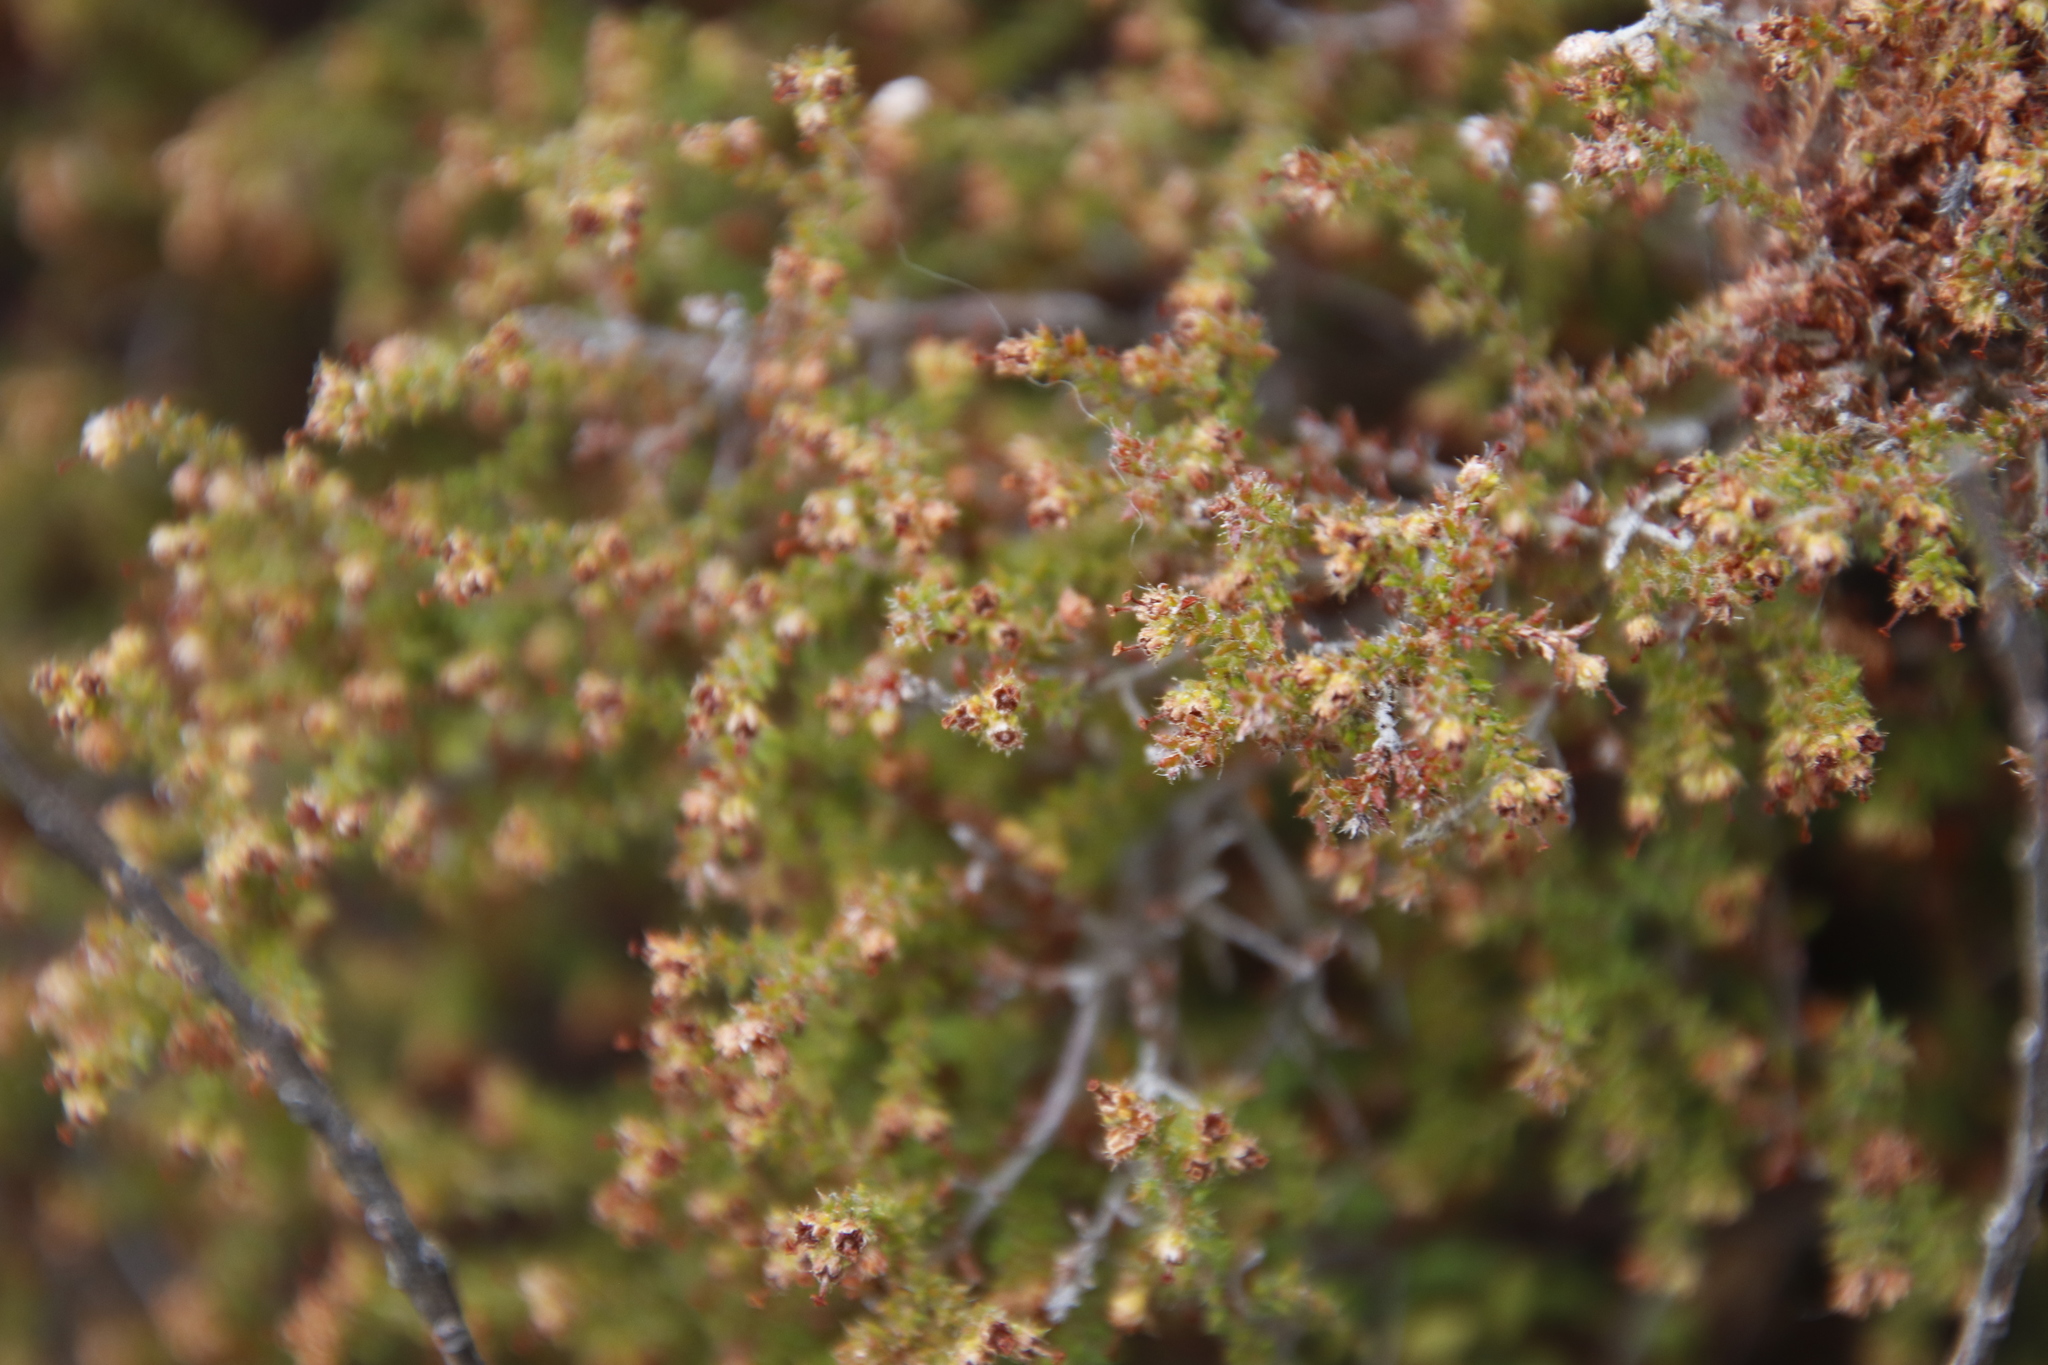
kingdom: Plantae
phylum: Tracheophyta
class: Magnoliopsida
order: Ericales
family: Ericaceae
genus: Erica
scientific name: Erica exleeana
